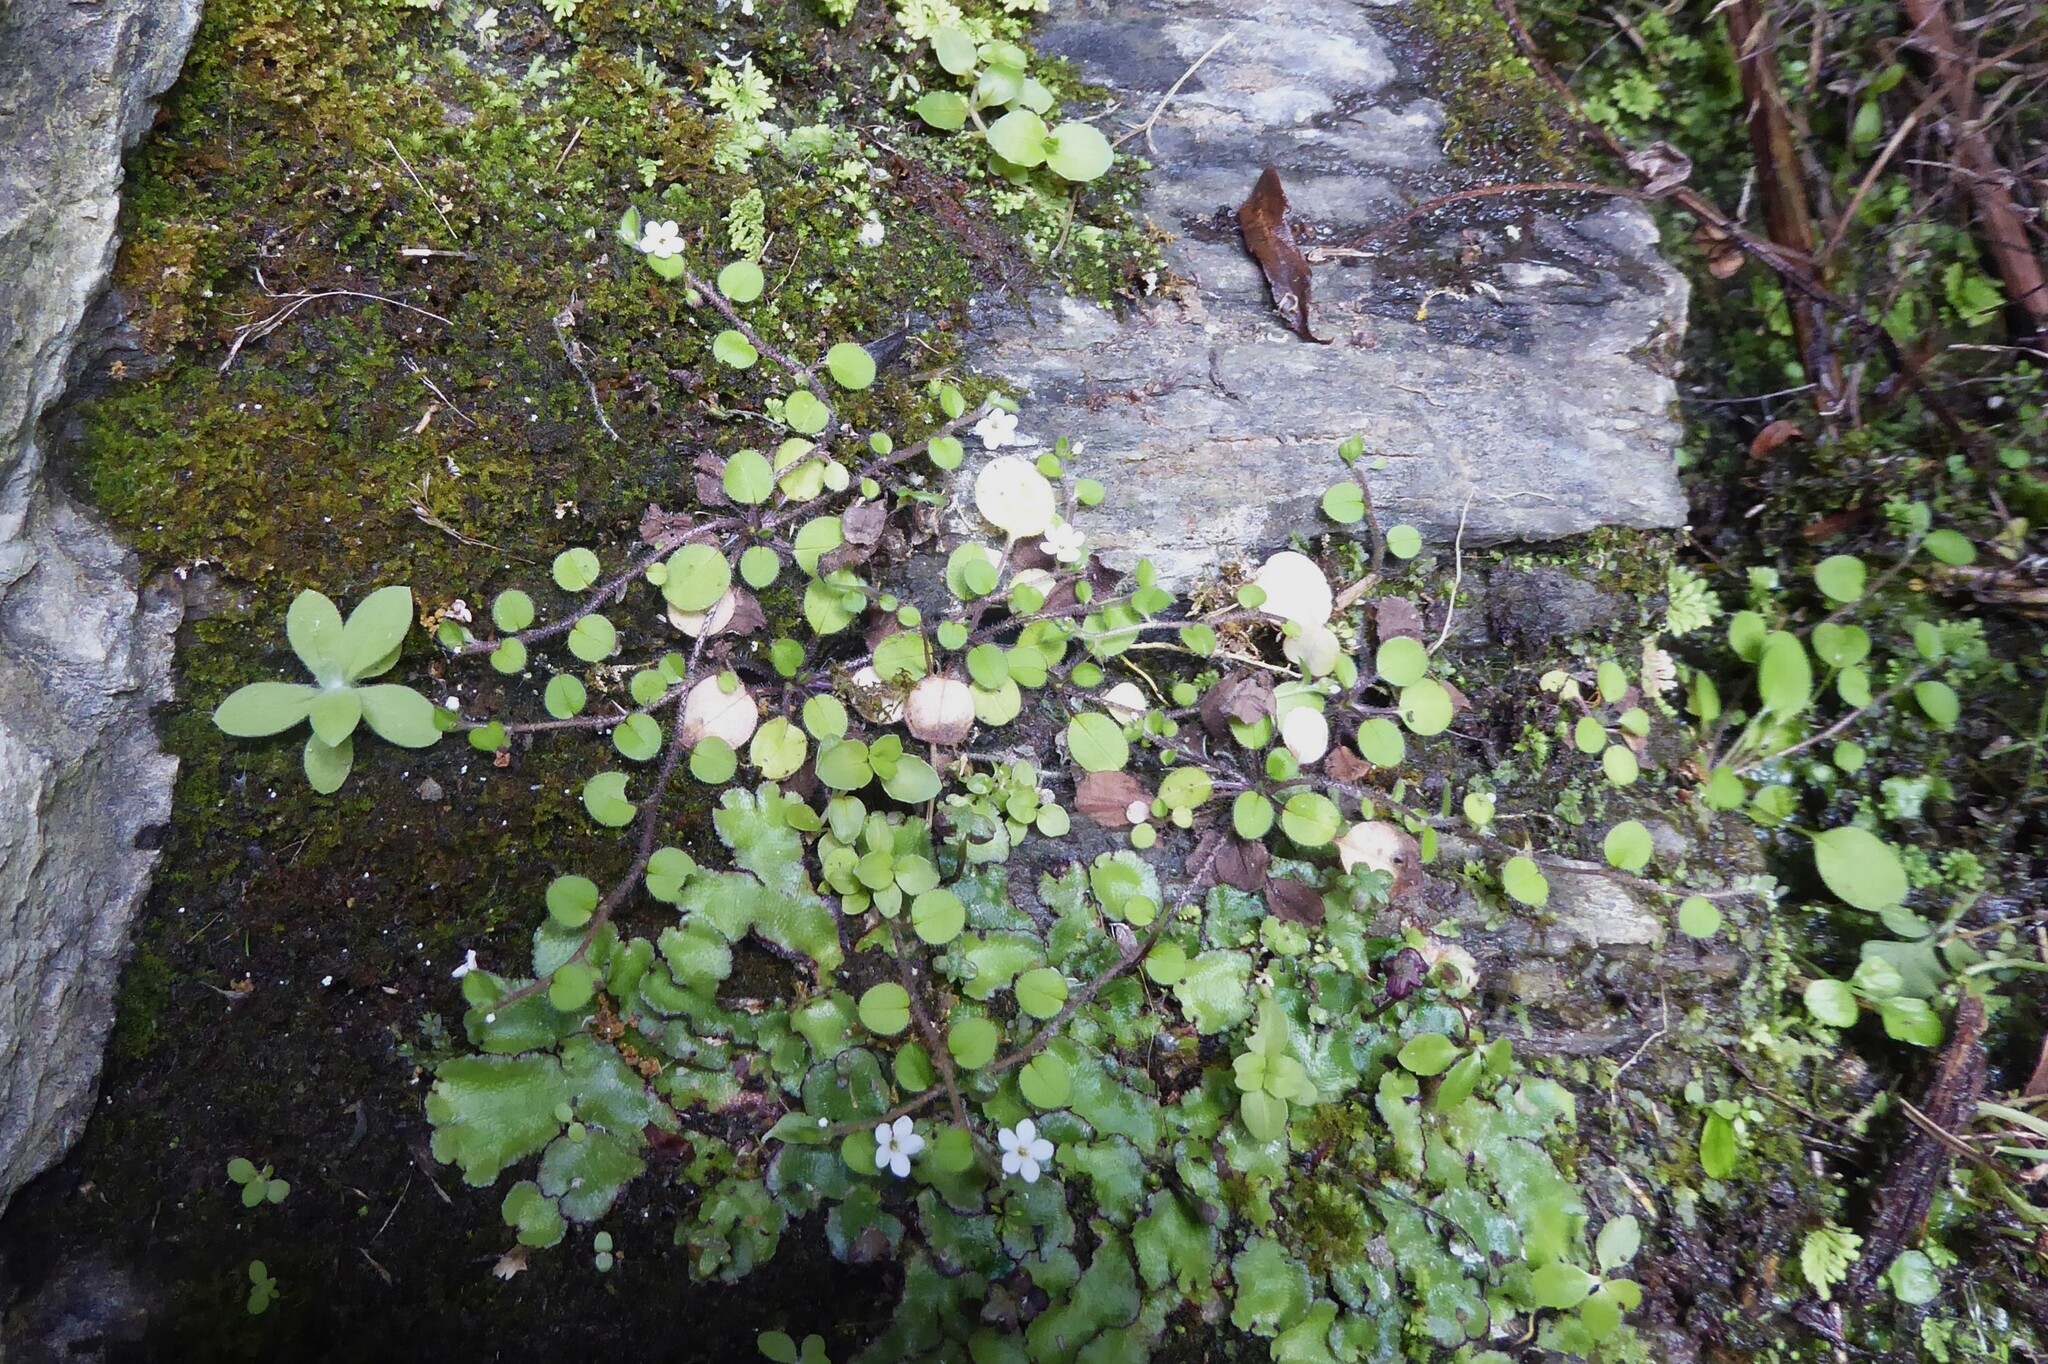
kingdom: Plantae
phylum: Tracheophyta
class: Magnoliopsida
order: Boraginales
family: Boraginaceae
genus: Myosotis
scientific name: Myosotis spathulata
